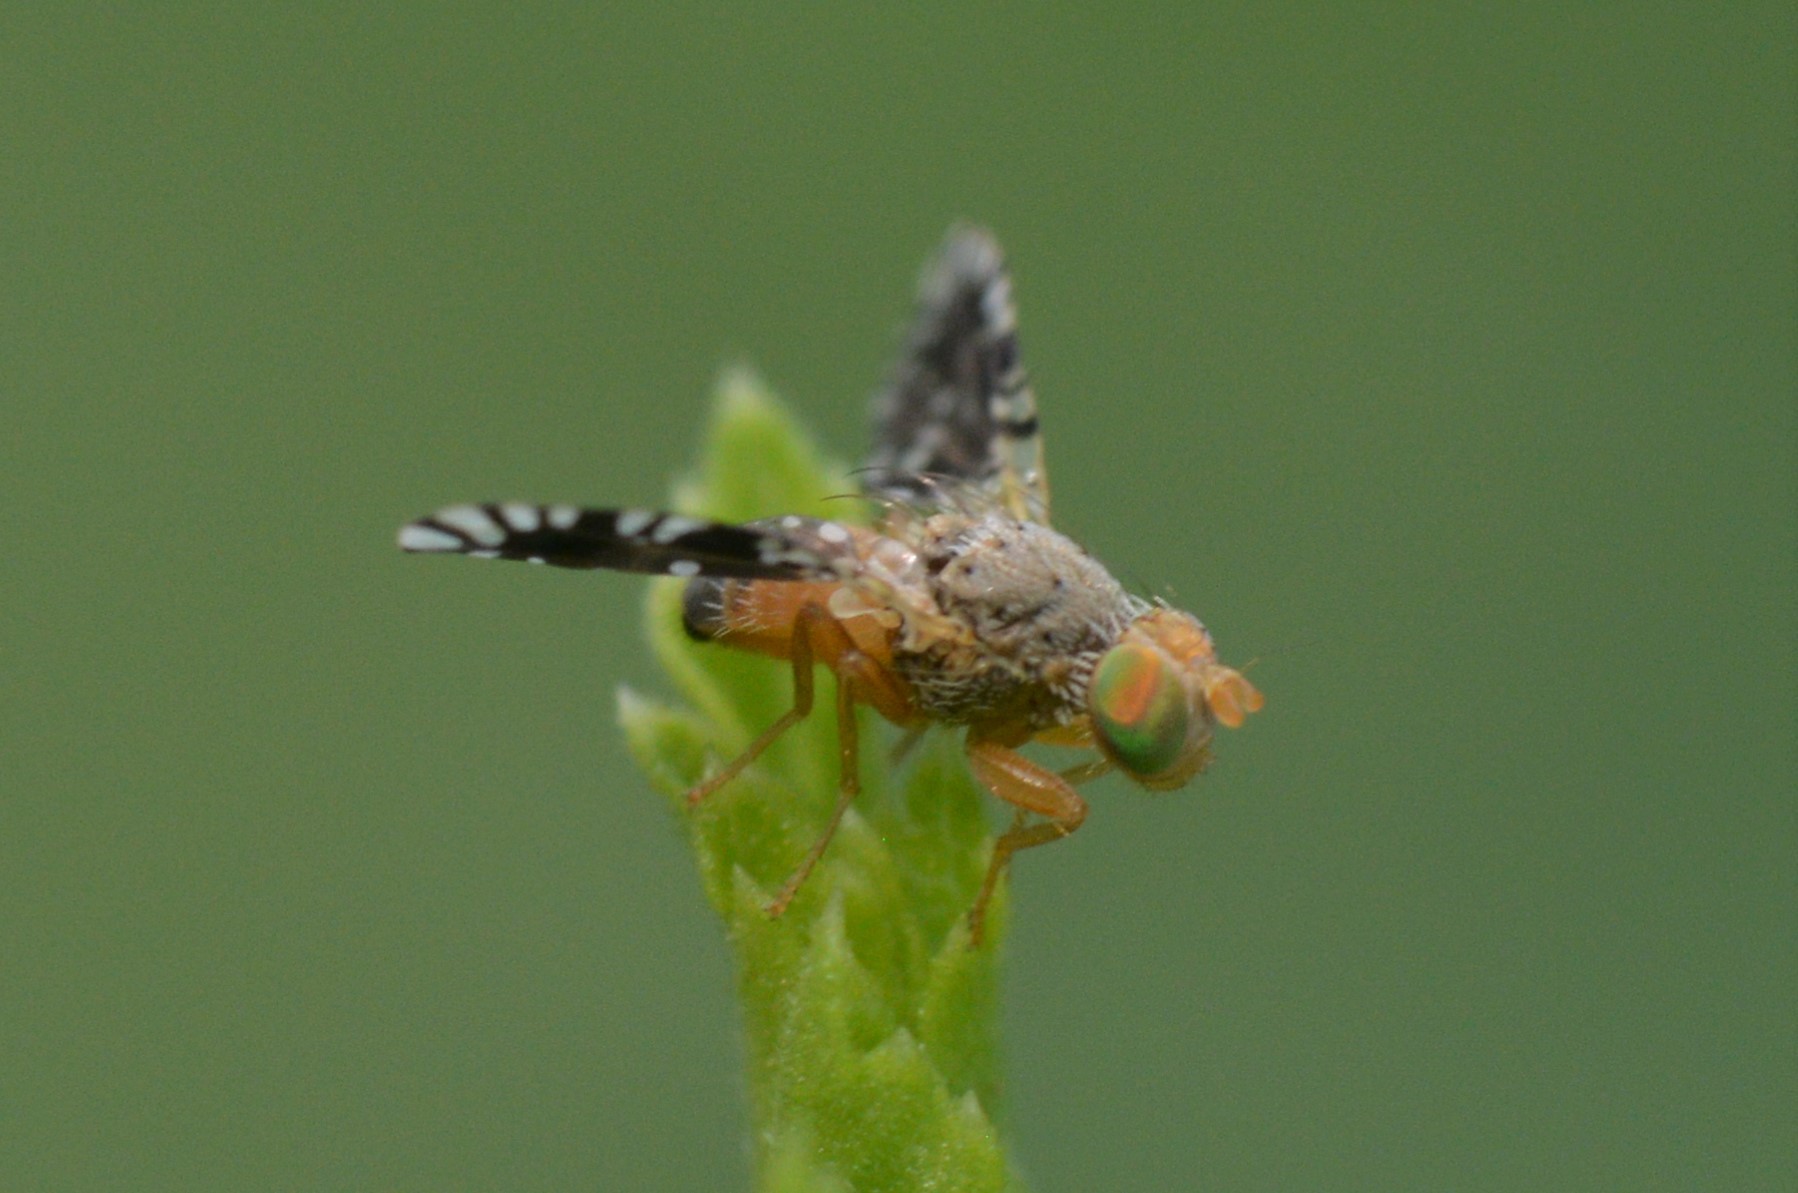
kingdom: Animalia
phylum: Arthropoda
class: Insecta
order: Diptera
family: Tephritidae
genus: Euaresta
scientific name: Euaresta bella
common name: Common ragweed fruit fly
